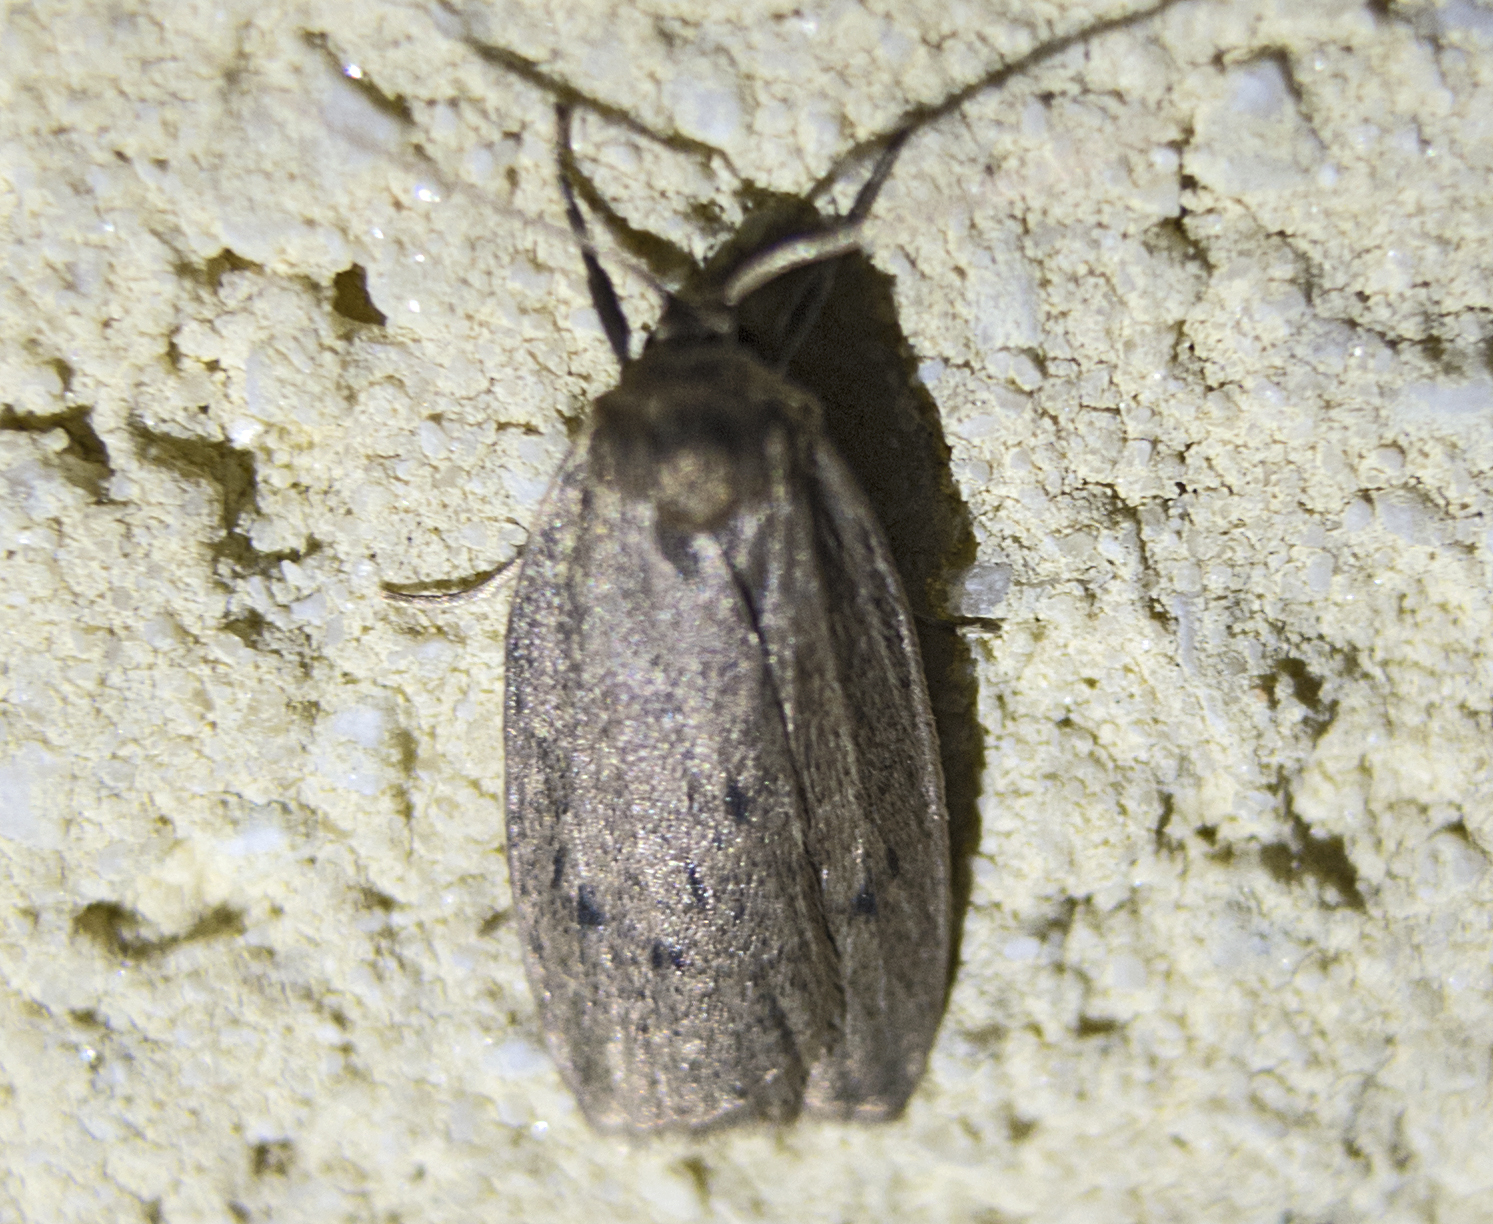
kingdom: Animalia
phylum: Arthropoda
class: Insecta
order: Lepidoptera
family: Erebidae
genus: Pelosia
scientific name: Pelosia obtusa
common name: Small dotted footman
